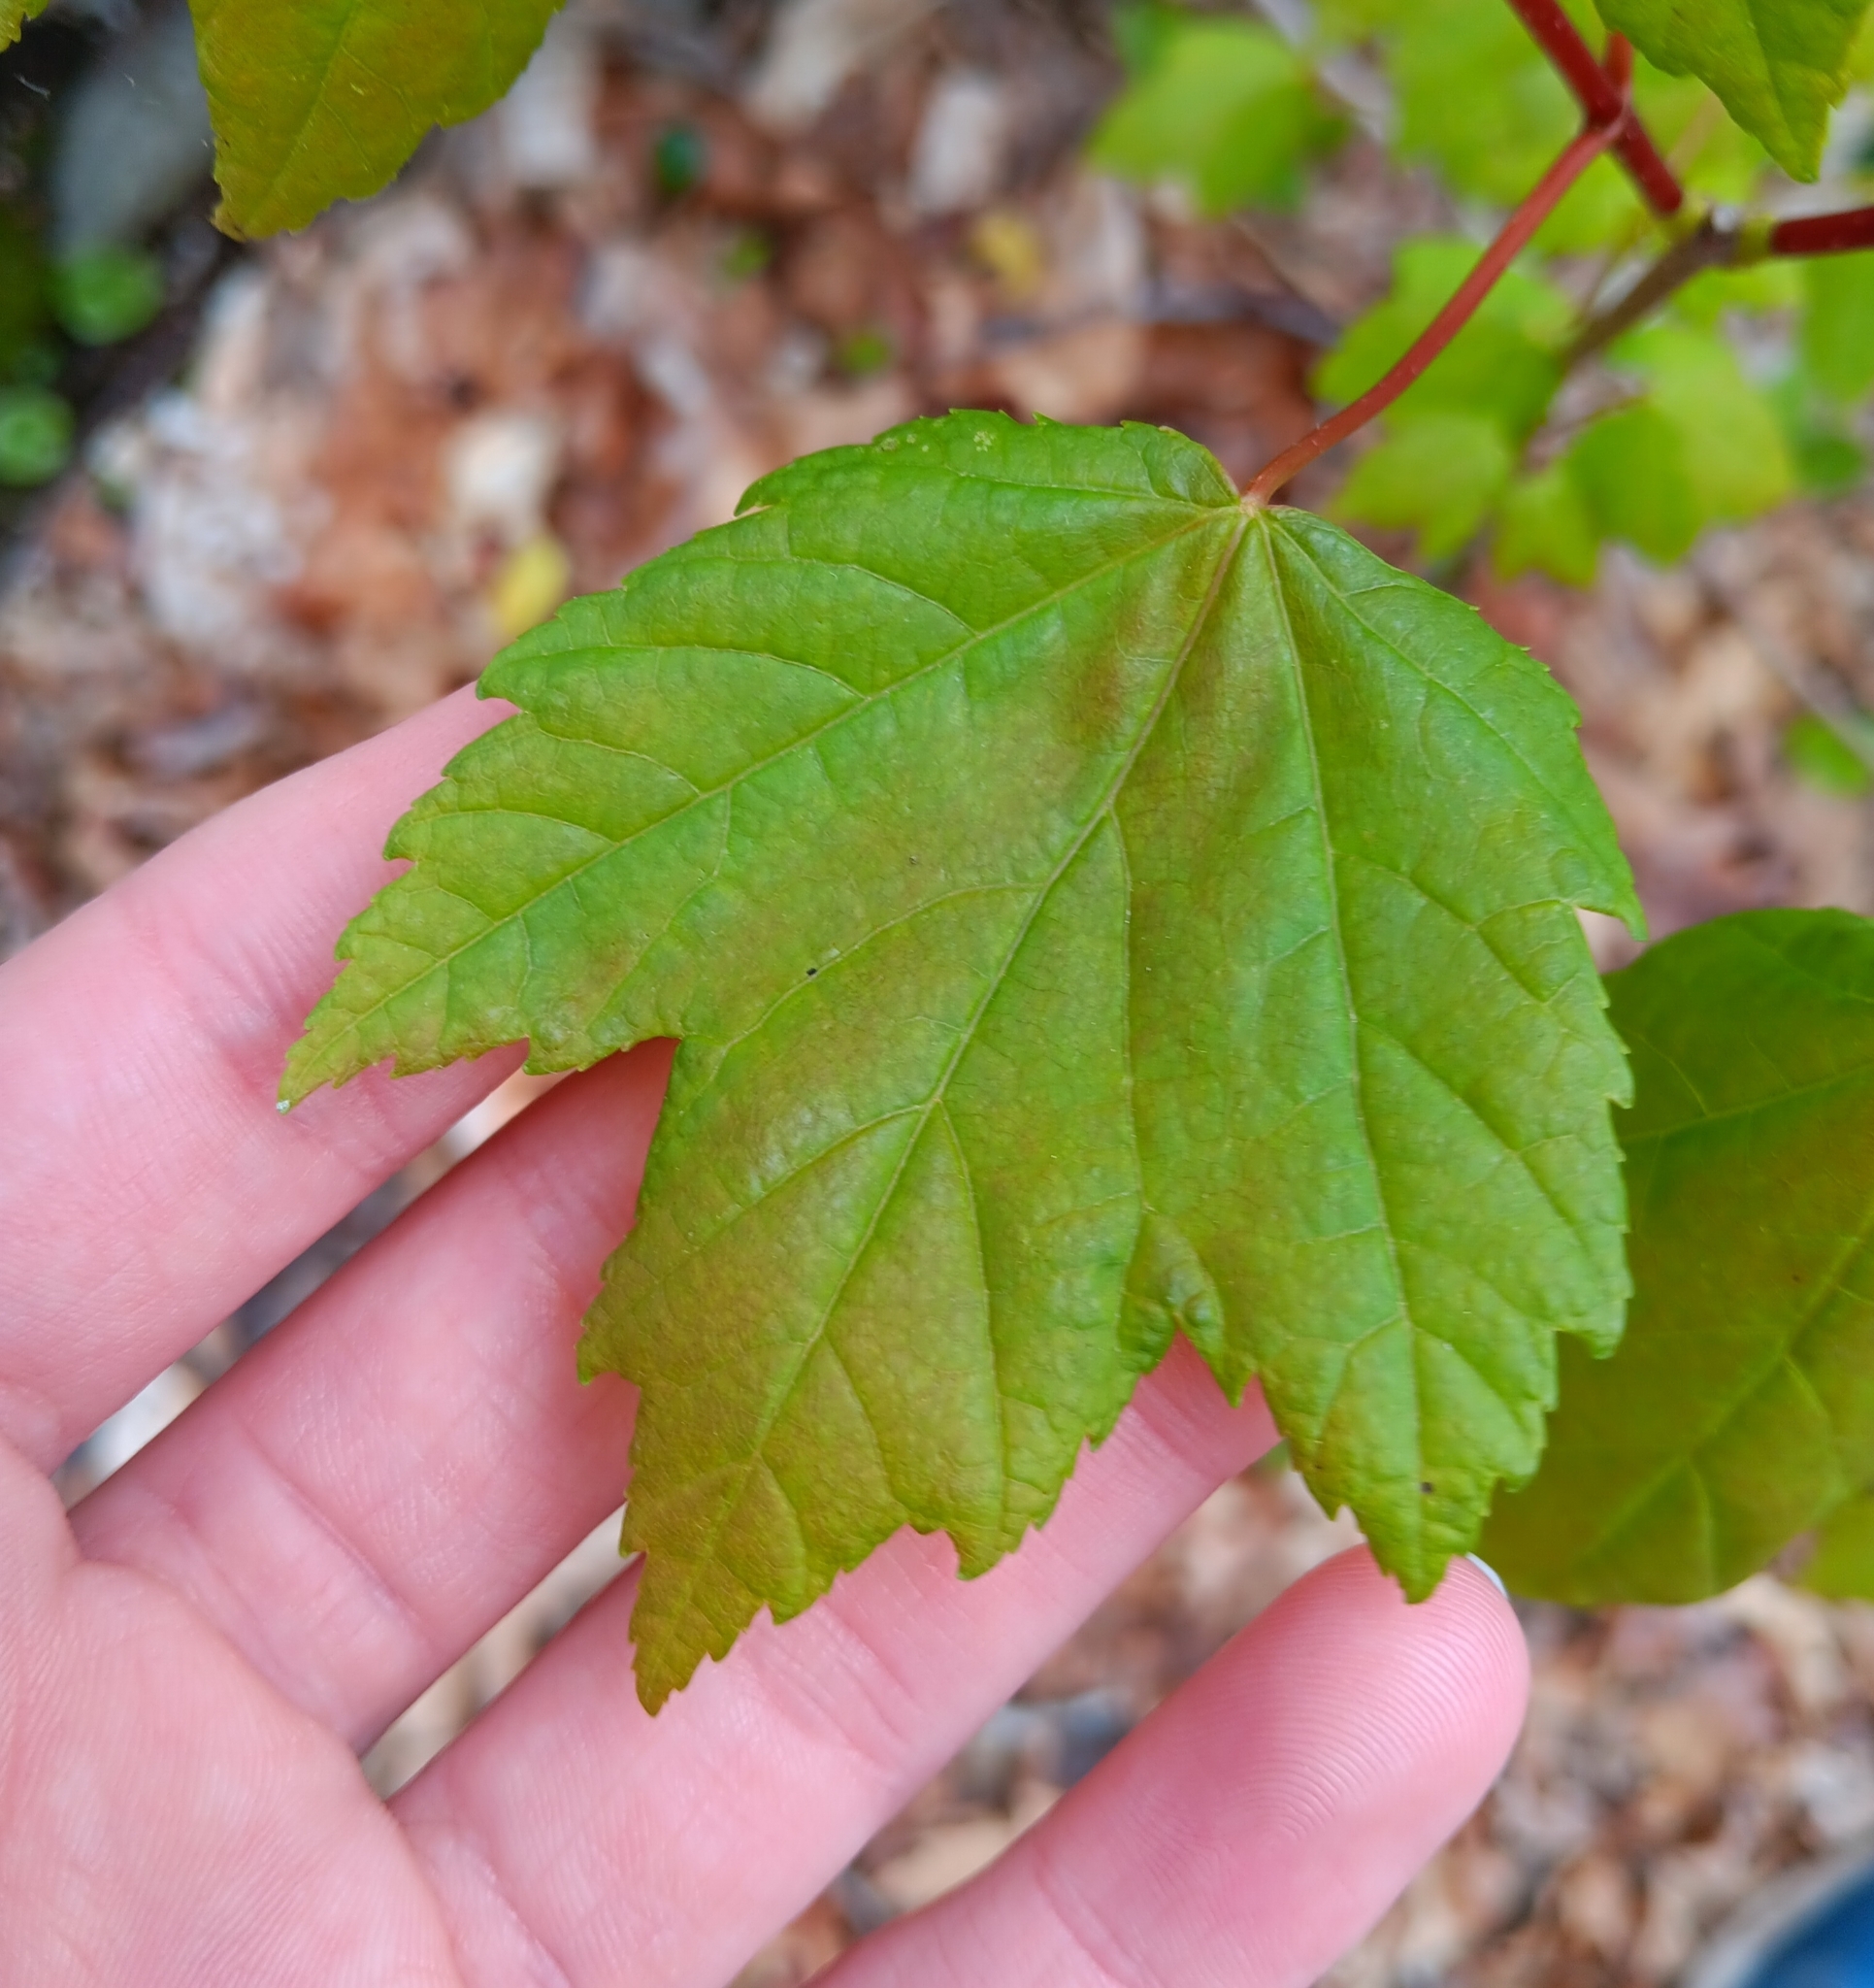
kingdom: Plantae
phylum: Tracheophyta
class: Magnoliopsida
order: Sapindales
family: Sapindaceae
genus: Acer
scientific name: Acer rubrum
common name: Red maple
